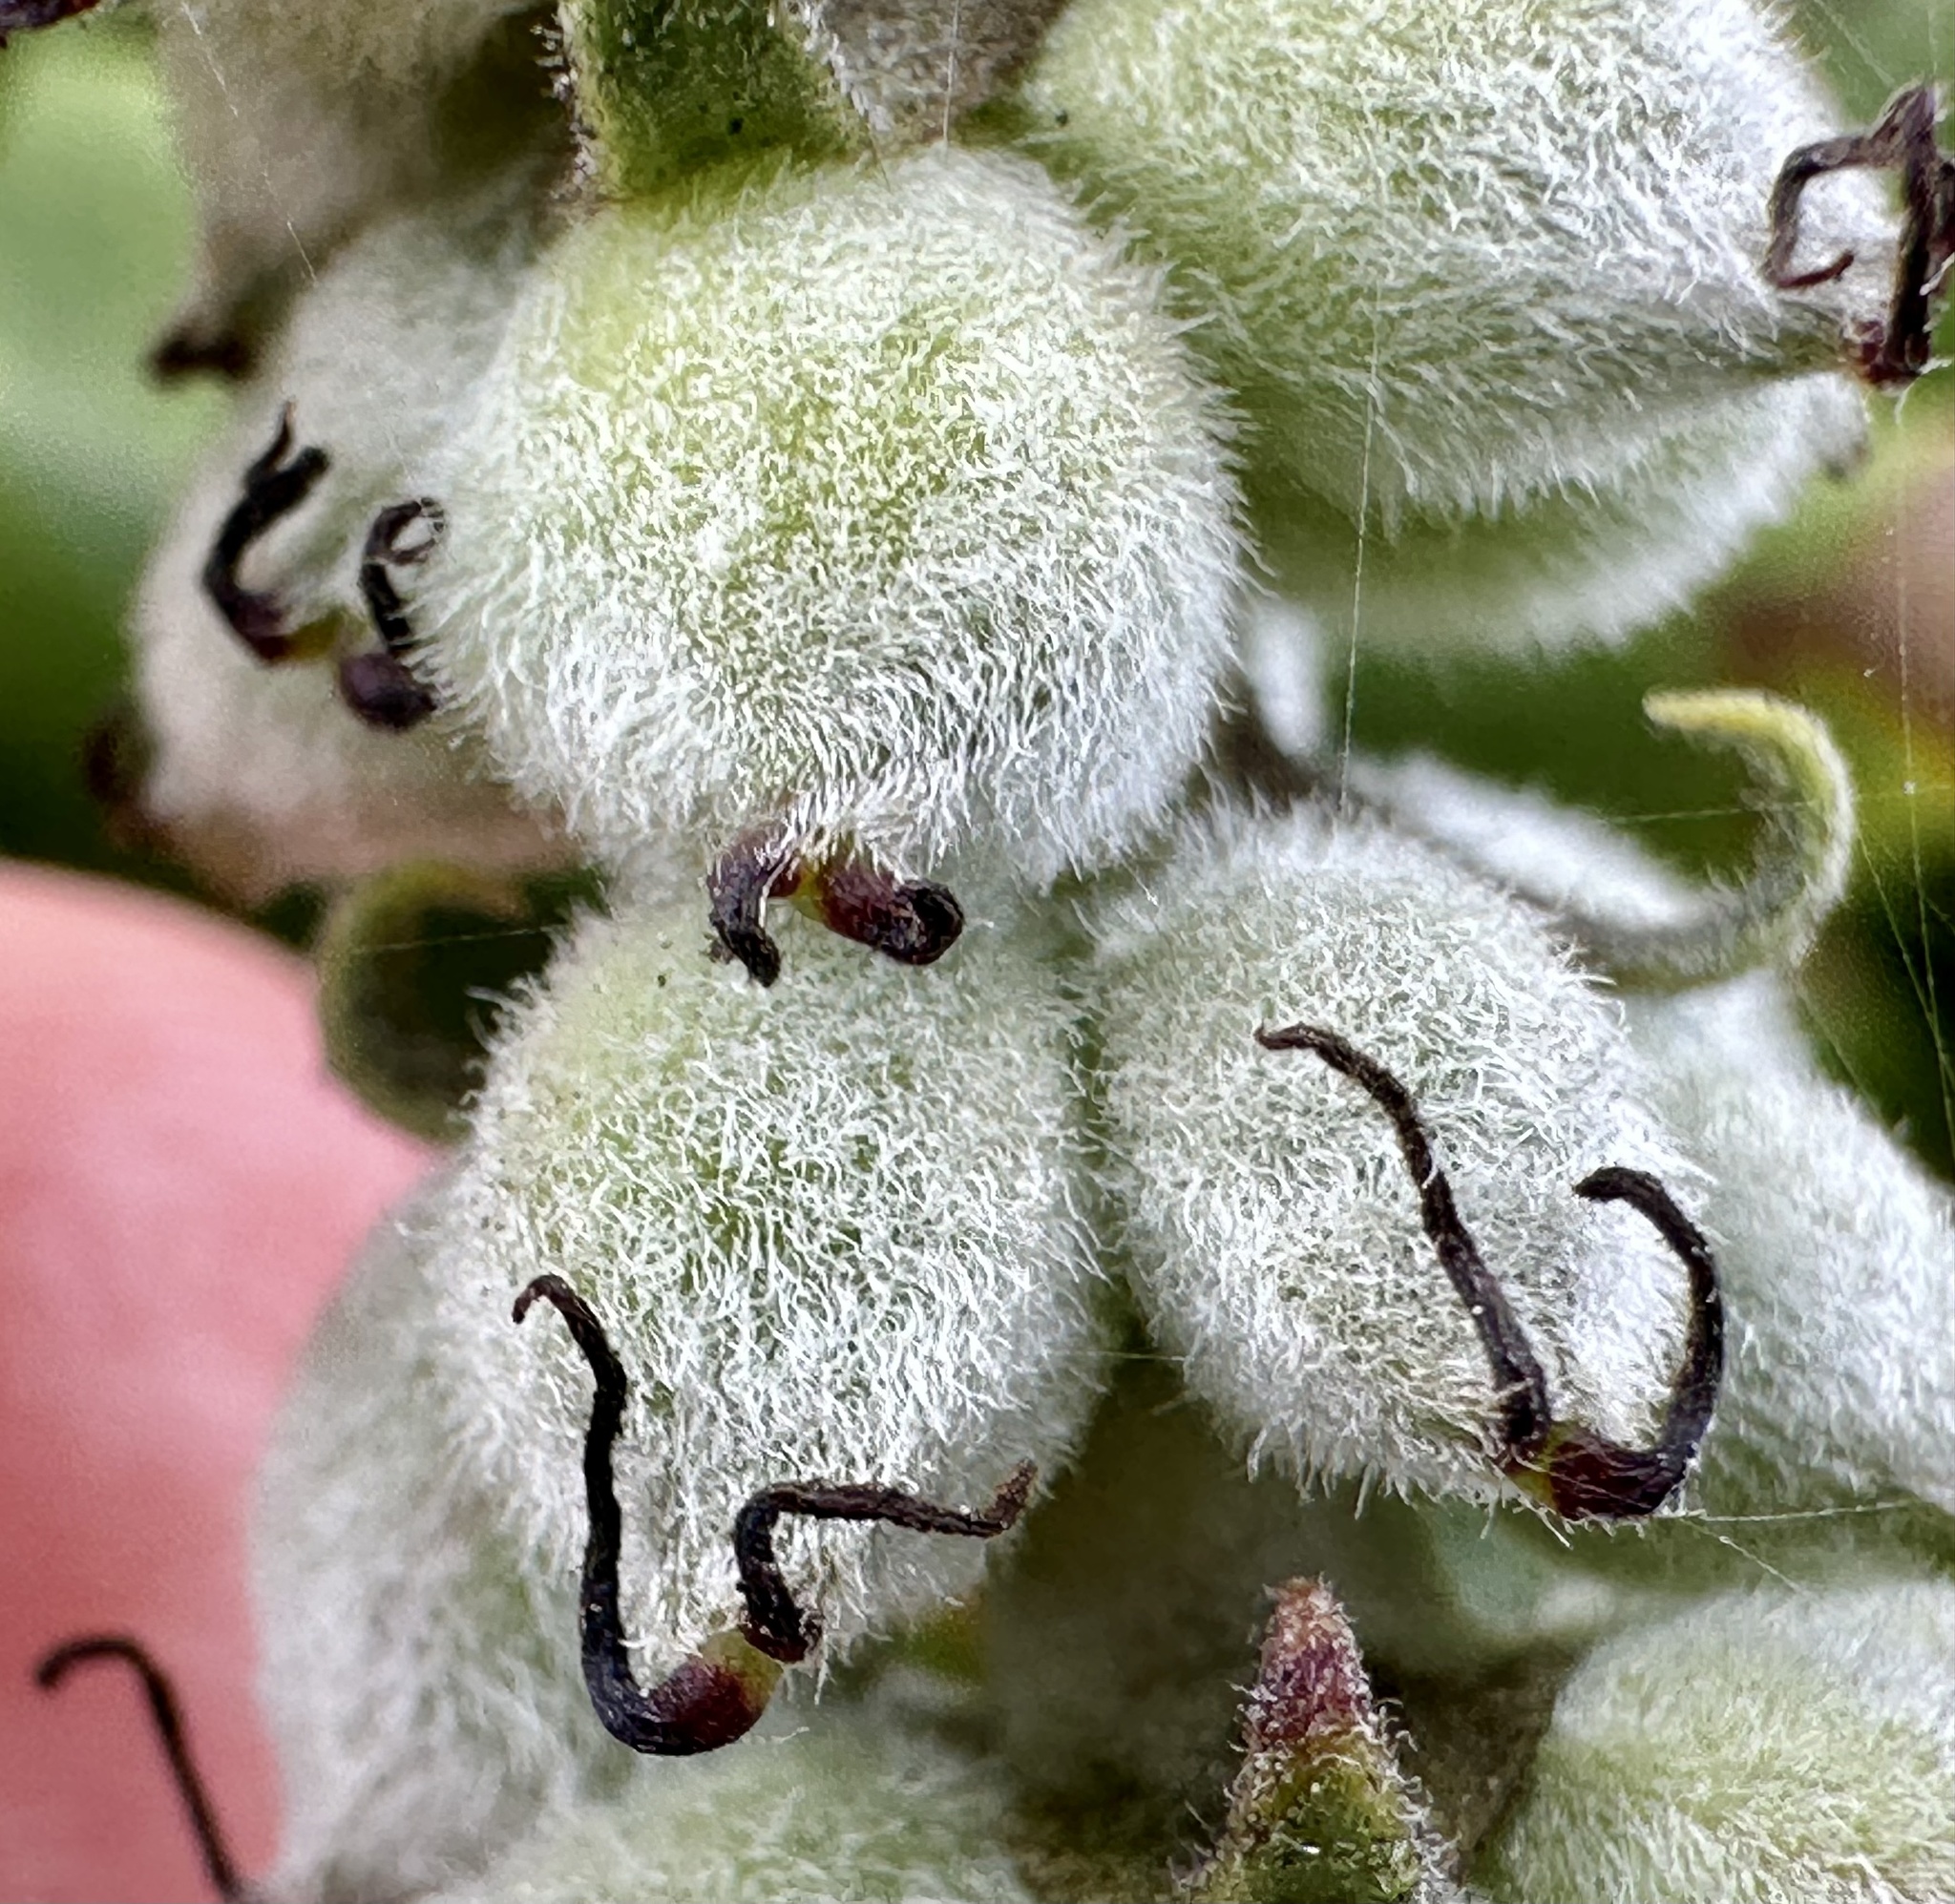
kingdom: Plantae
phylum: Tracheophyta
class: Magnoliopsida
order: Garryales
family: Garryaceae
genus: Garrya
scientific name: Garrya elliptica
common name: Silk-tassel
